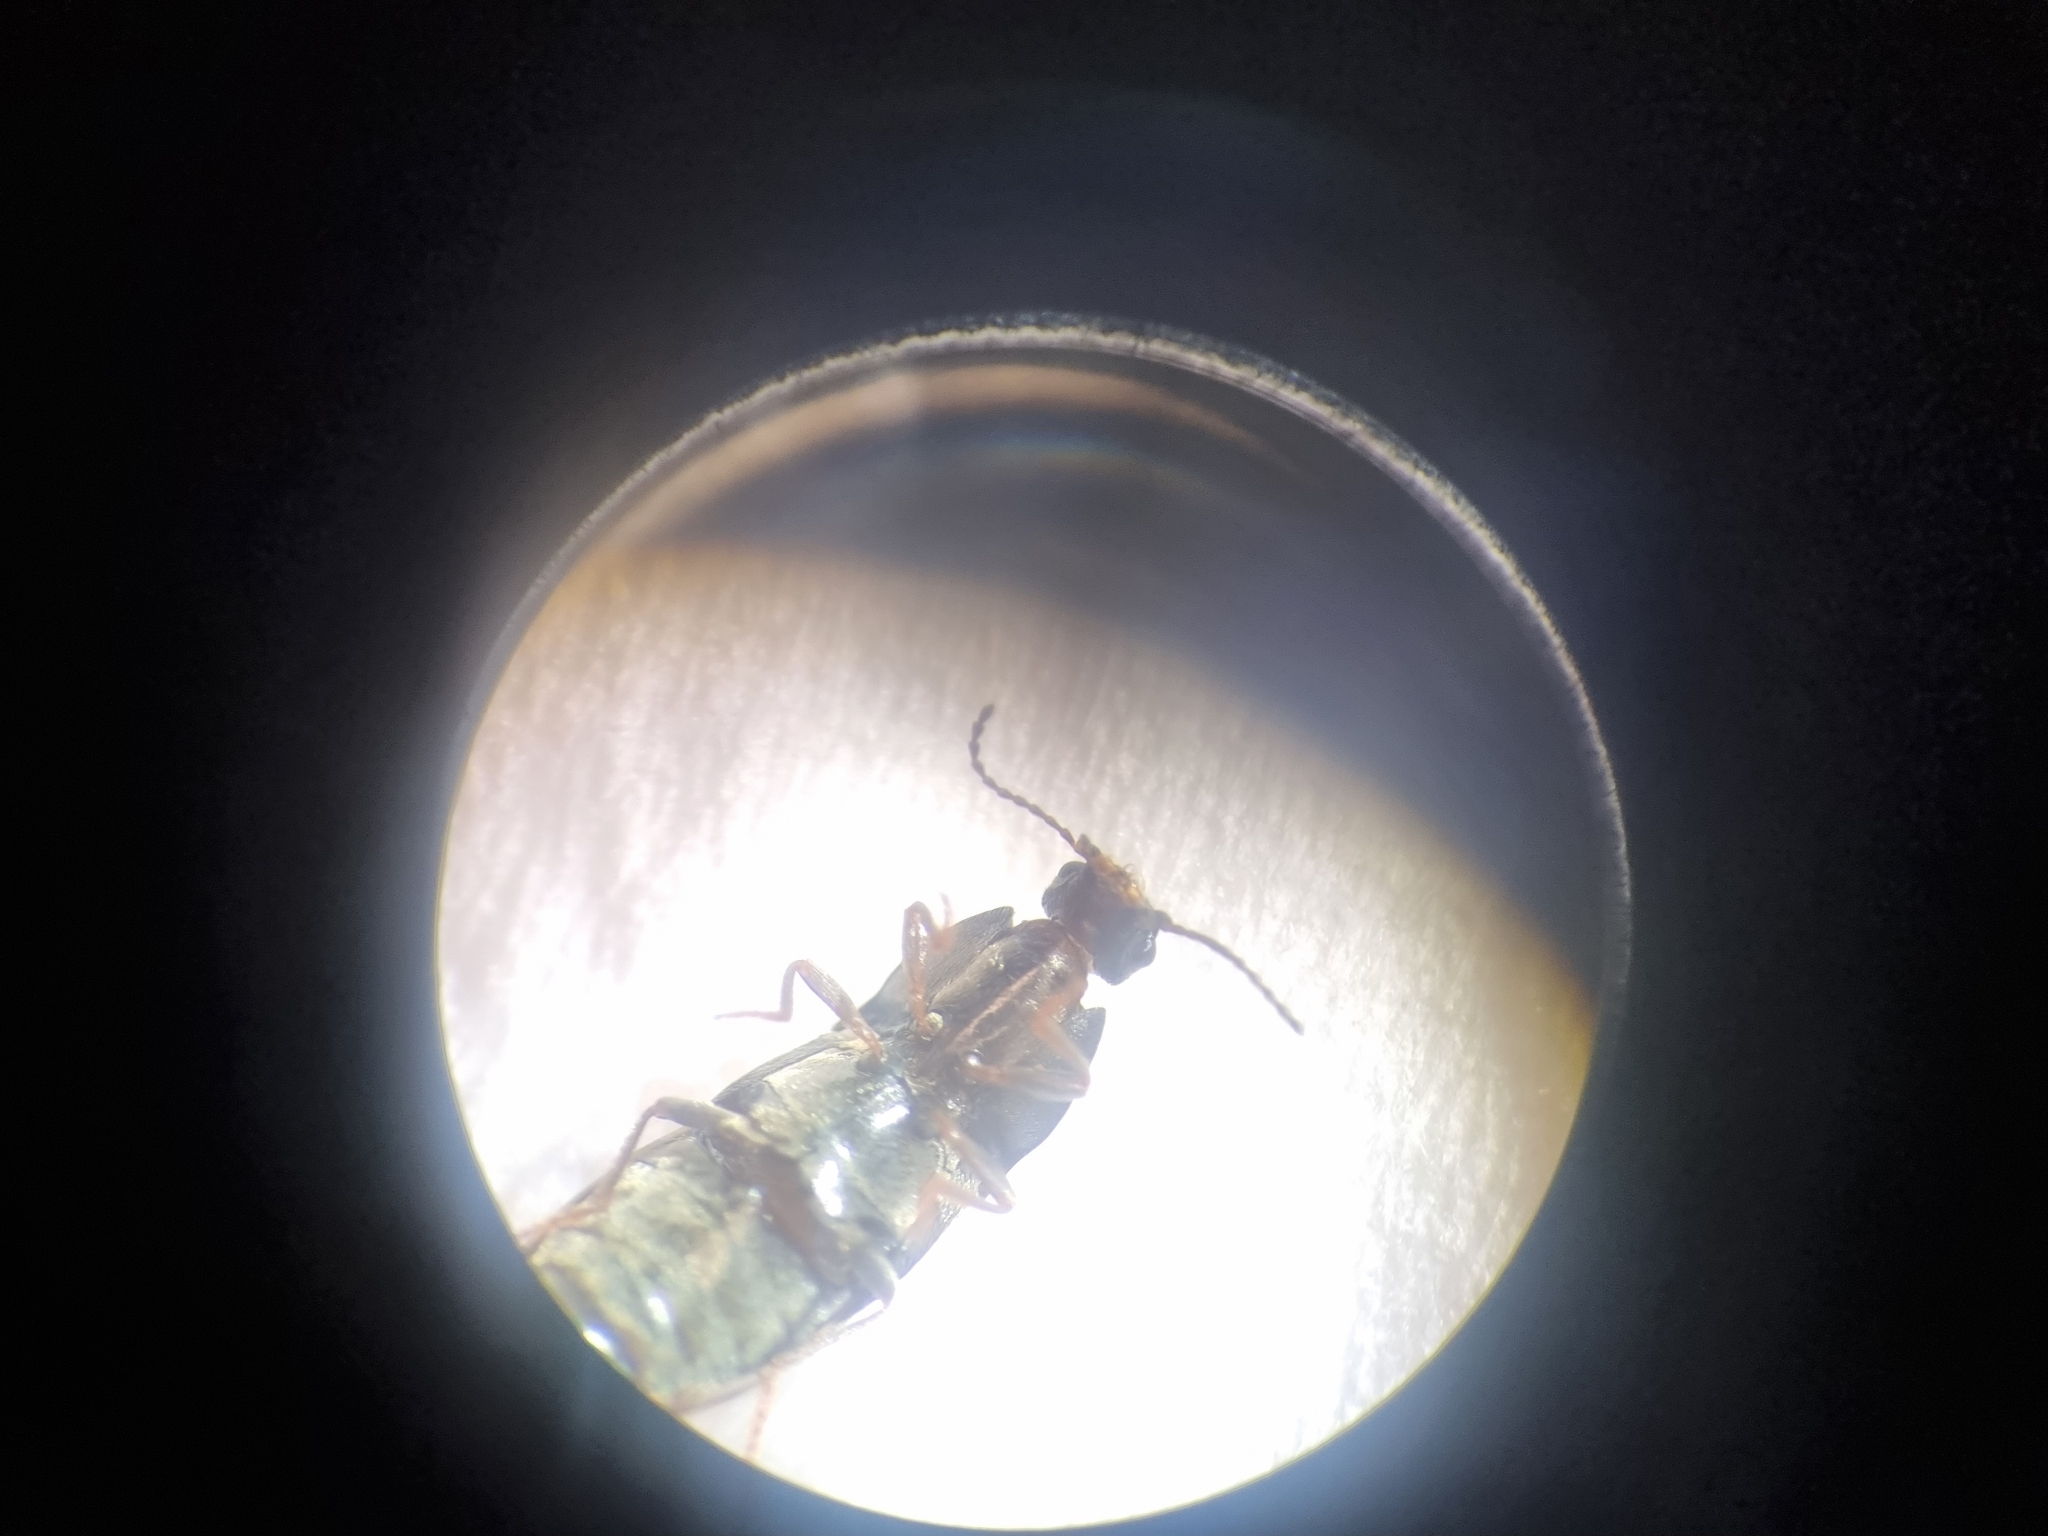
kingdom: Animalia
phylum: Arthropoda
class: Insecta
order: Coleoptera
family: Elateridae
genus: Hypnoidus
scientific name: Hypnoidus riparius
